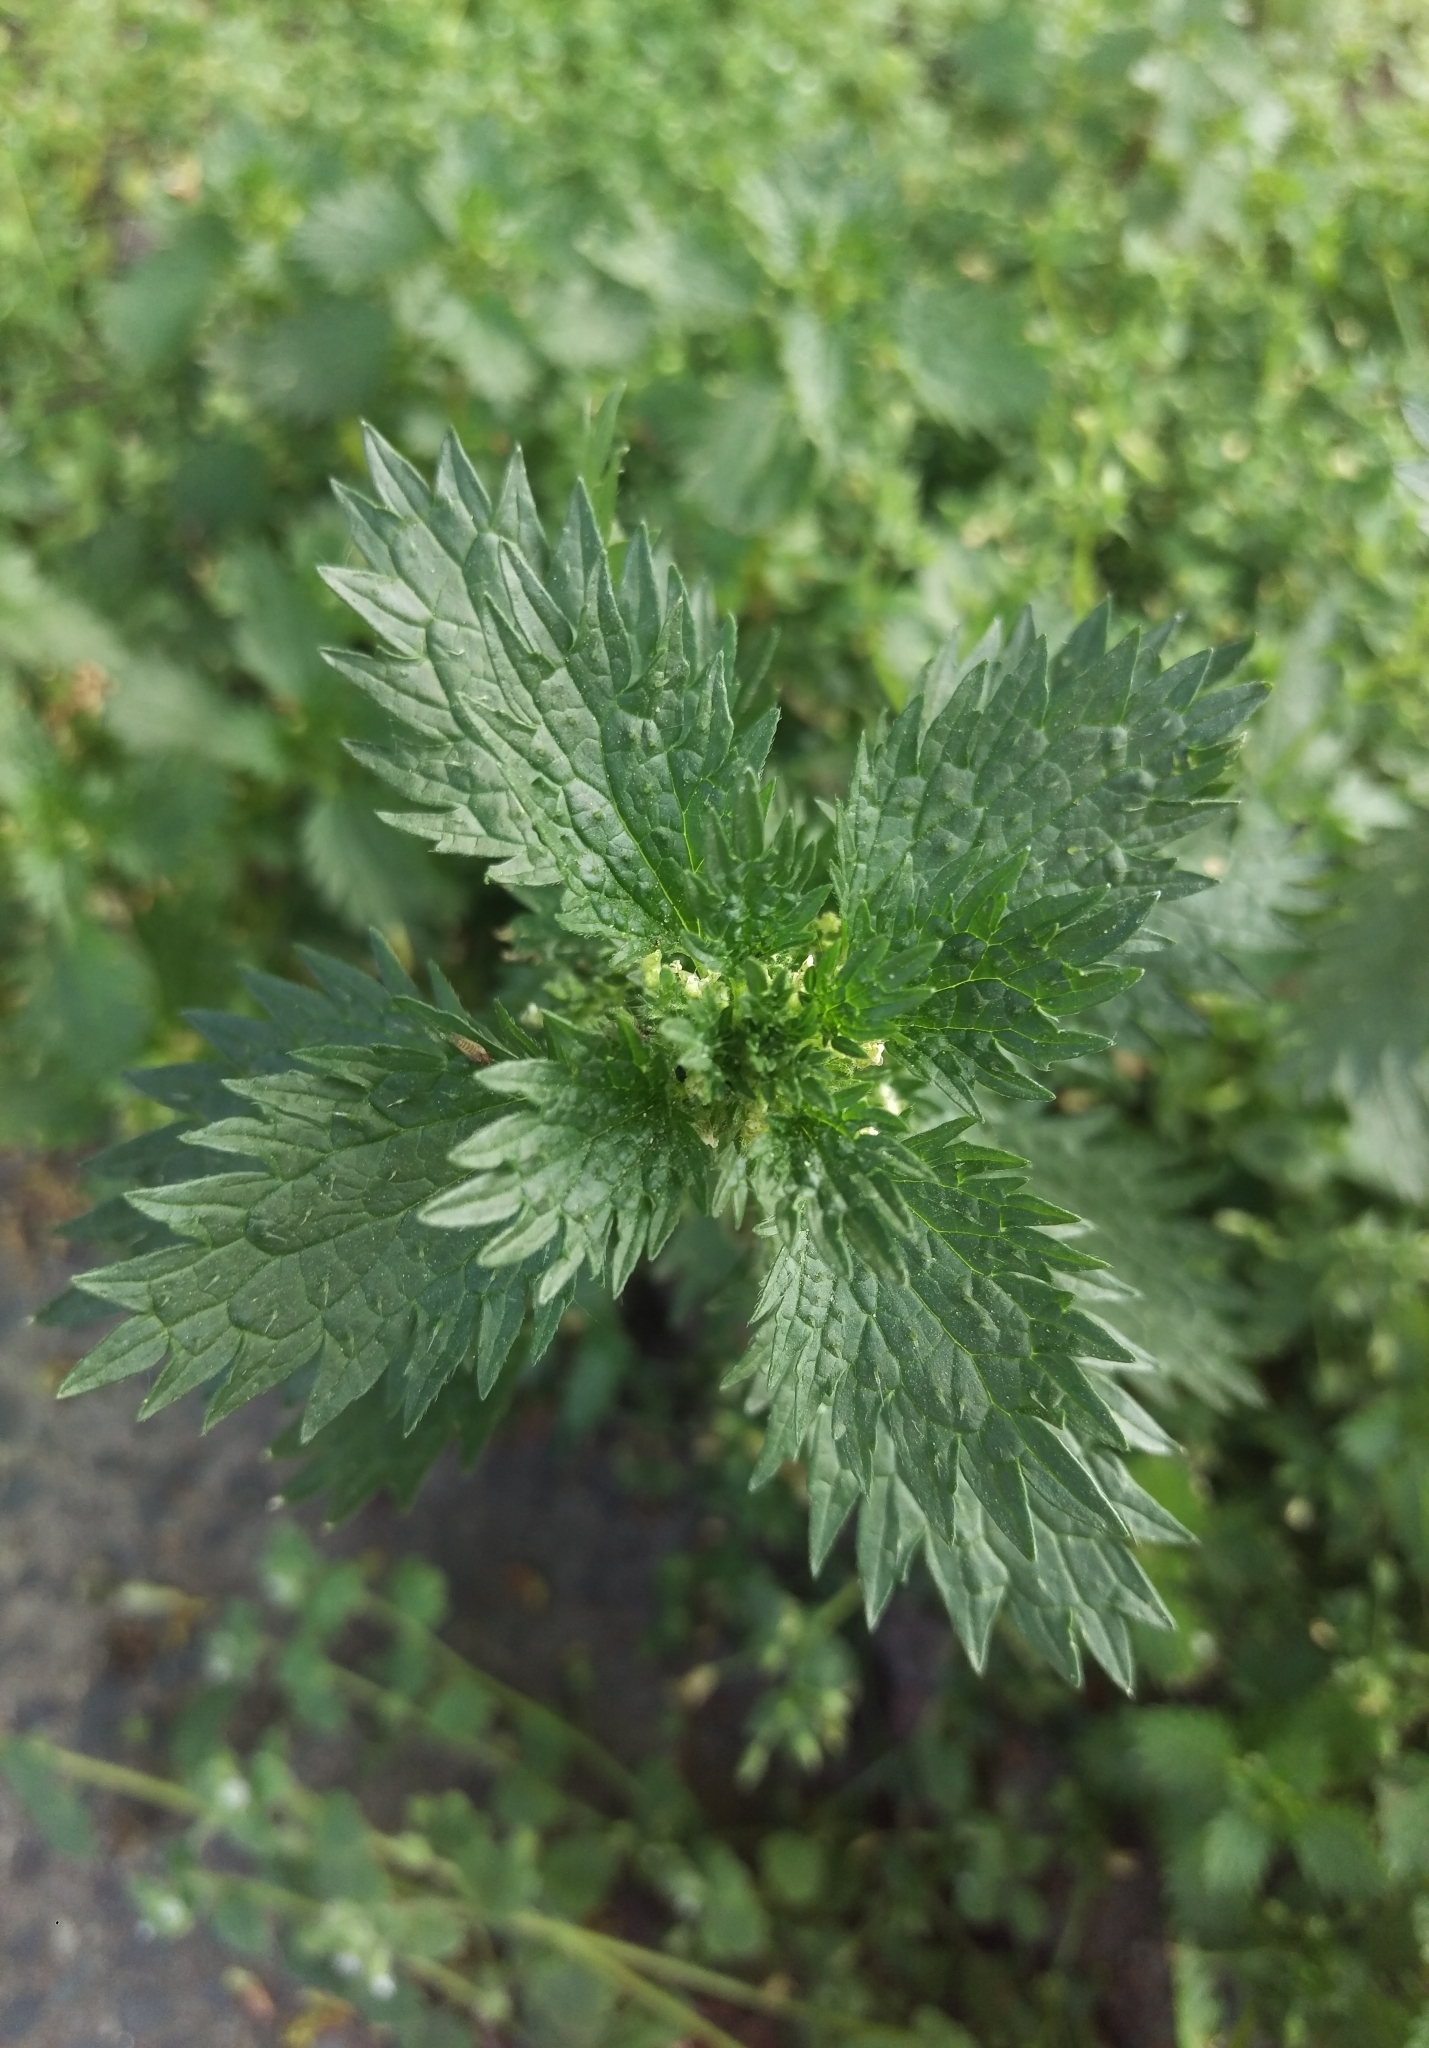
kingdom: Plantae
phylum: Tracheophyta
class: Magnoliopsida
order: Rosales
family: Urticaceae
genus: Urtica
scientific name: Urtica urens
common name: Dwarf nettle
